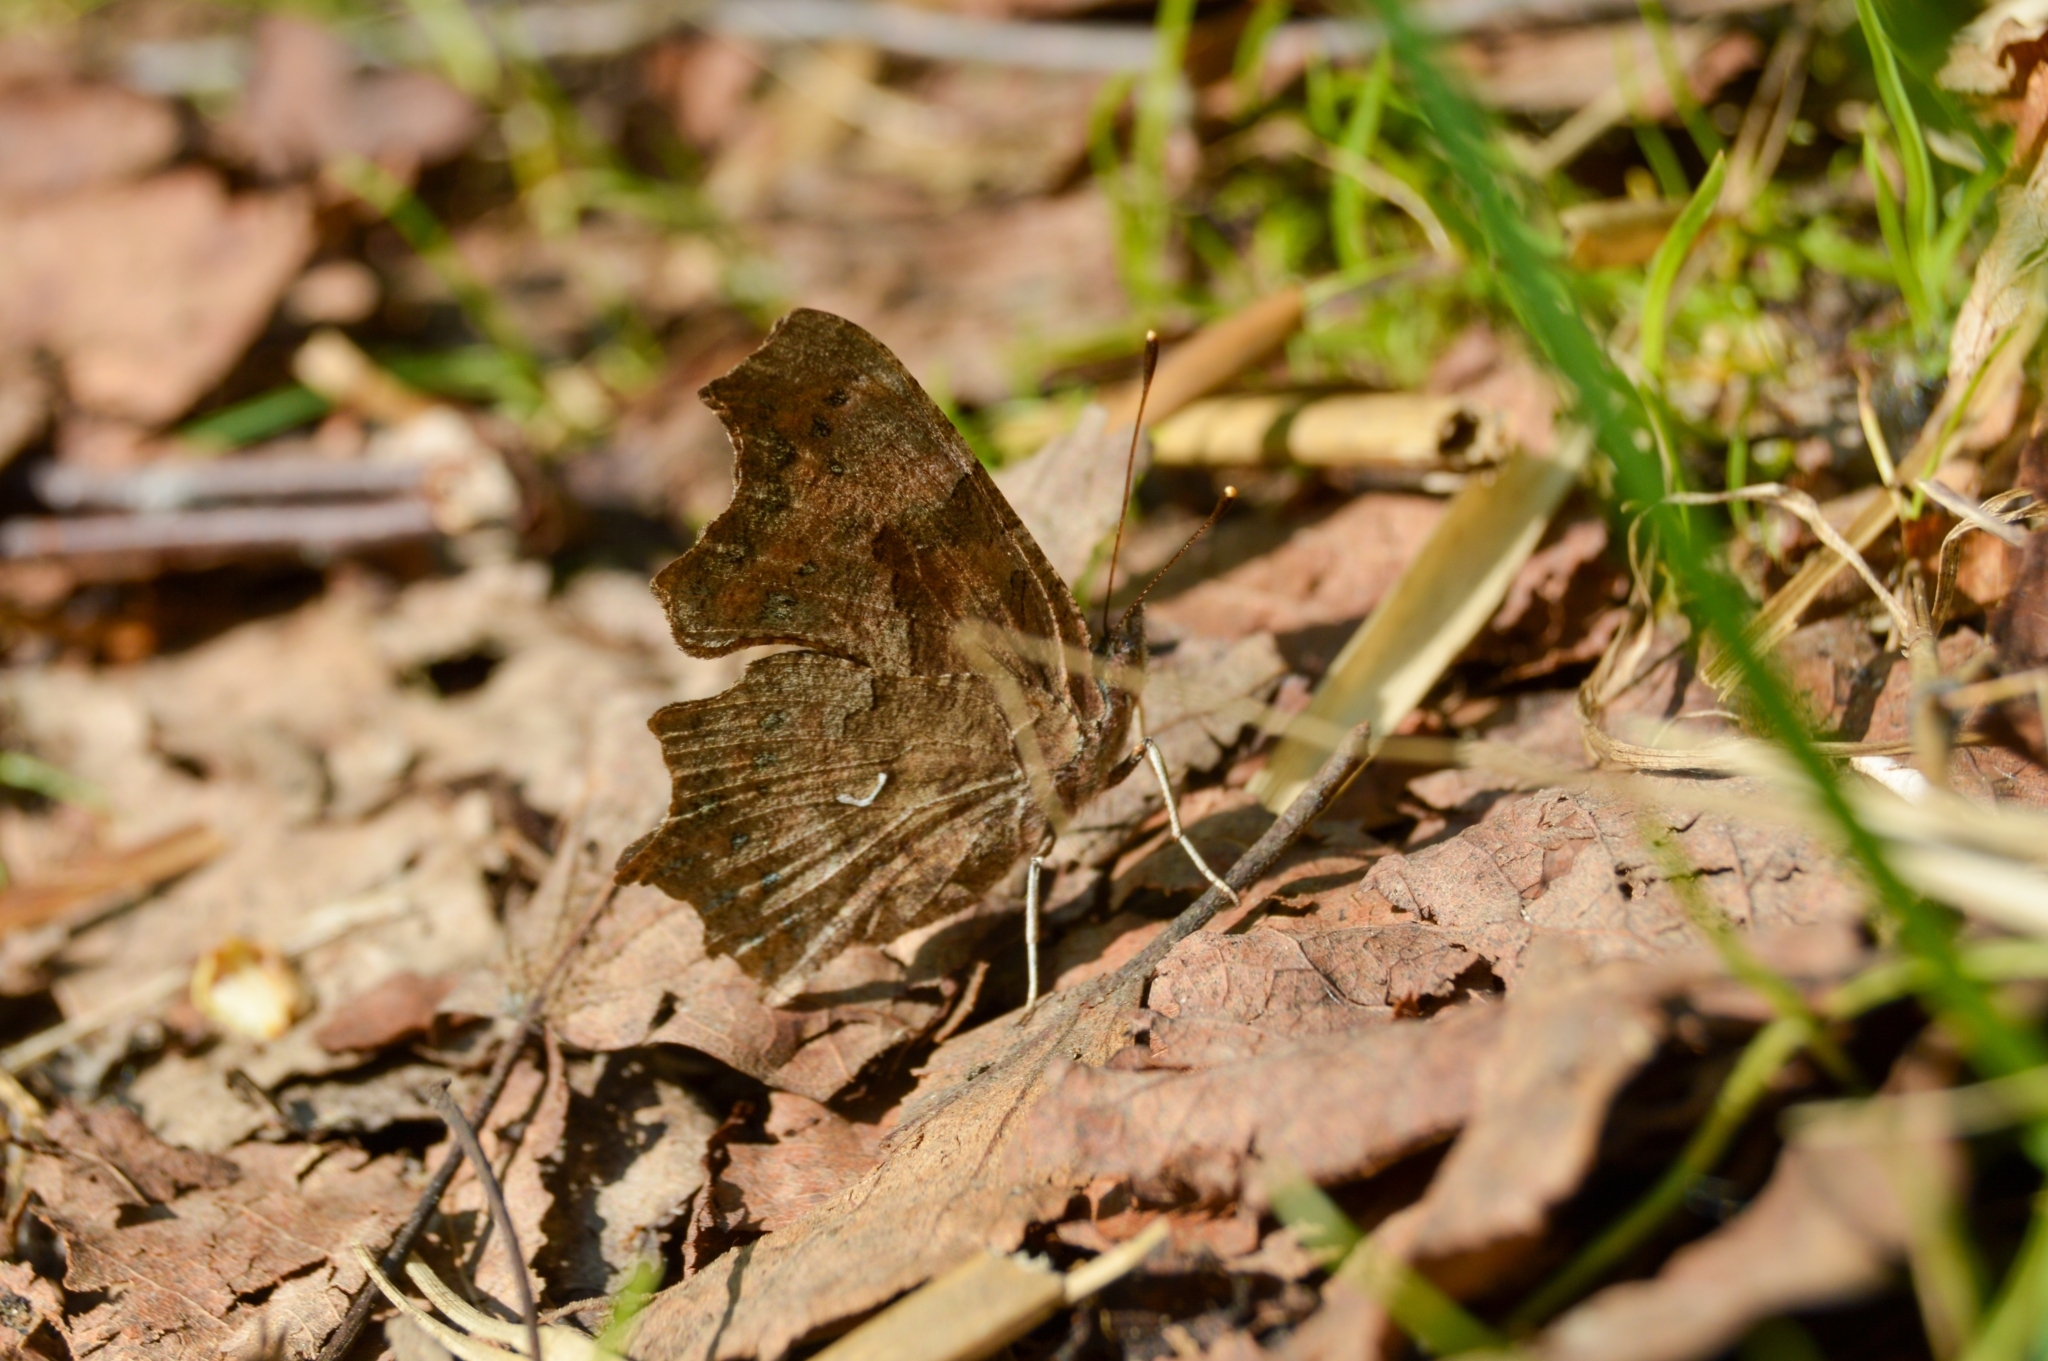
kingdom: Animalia
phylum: Arthropoda
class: Insecta
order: Lepidoptera
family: Nymphalidae
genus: Polygonia
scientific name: Polygonia c-album
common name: Comma
